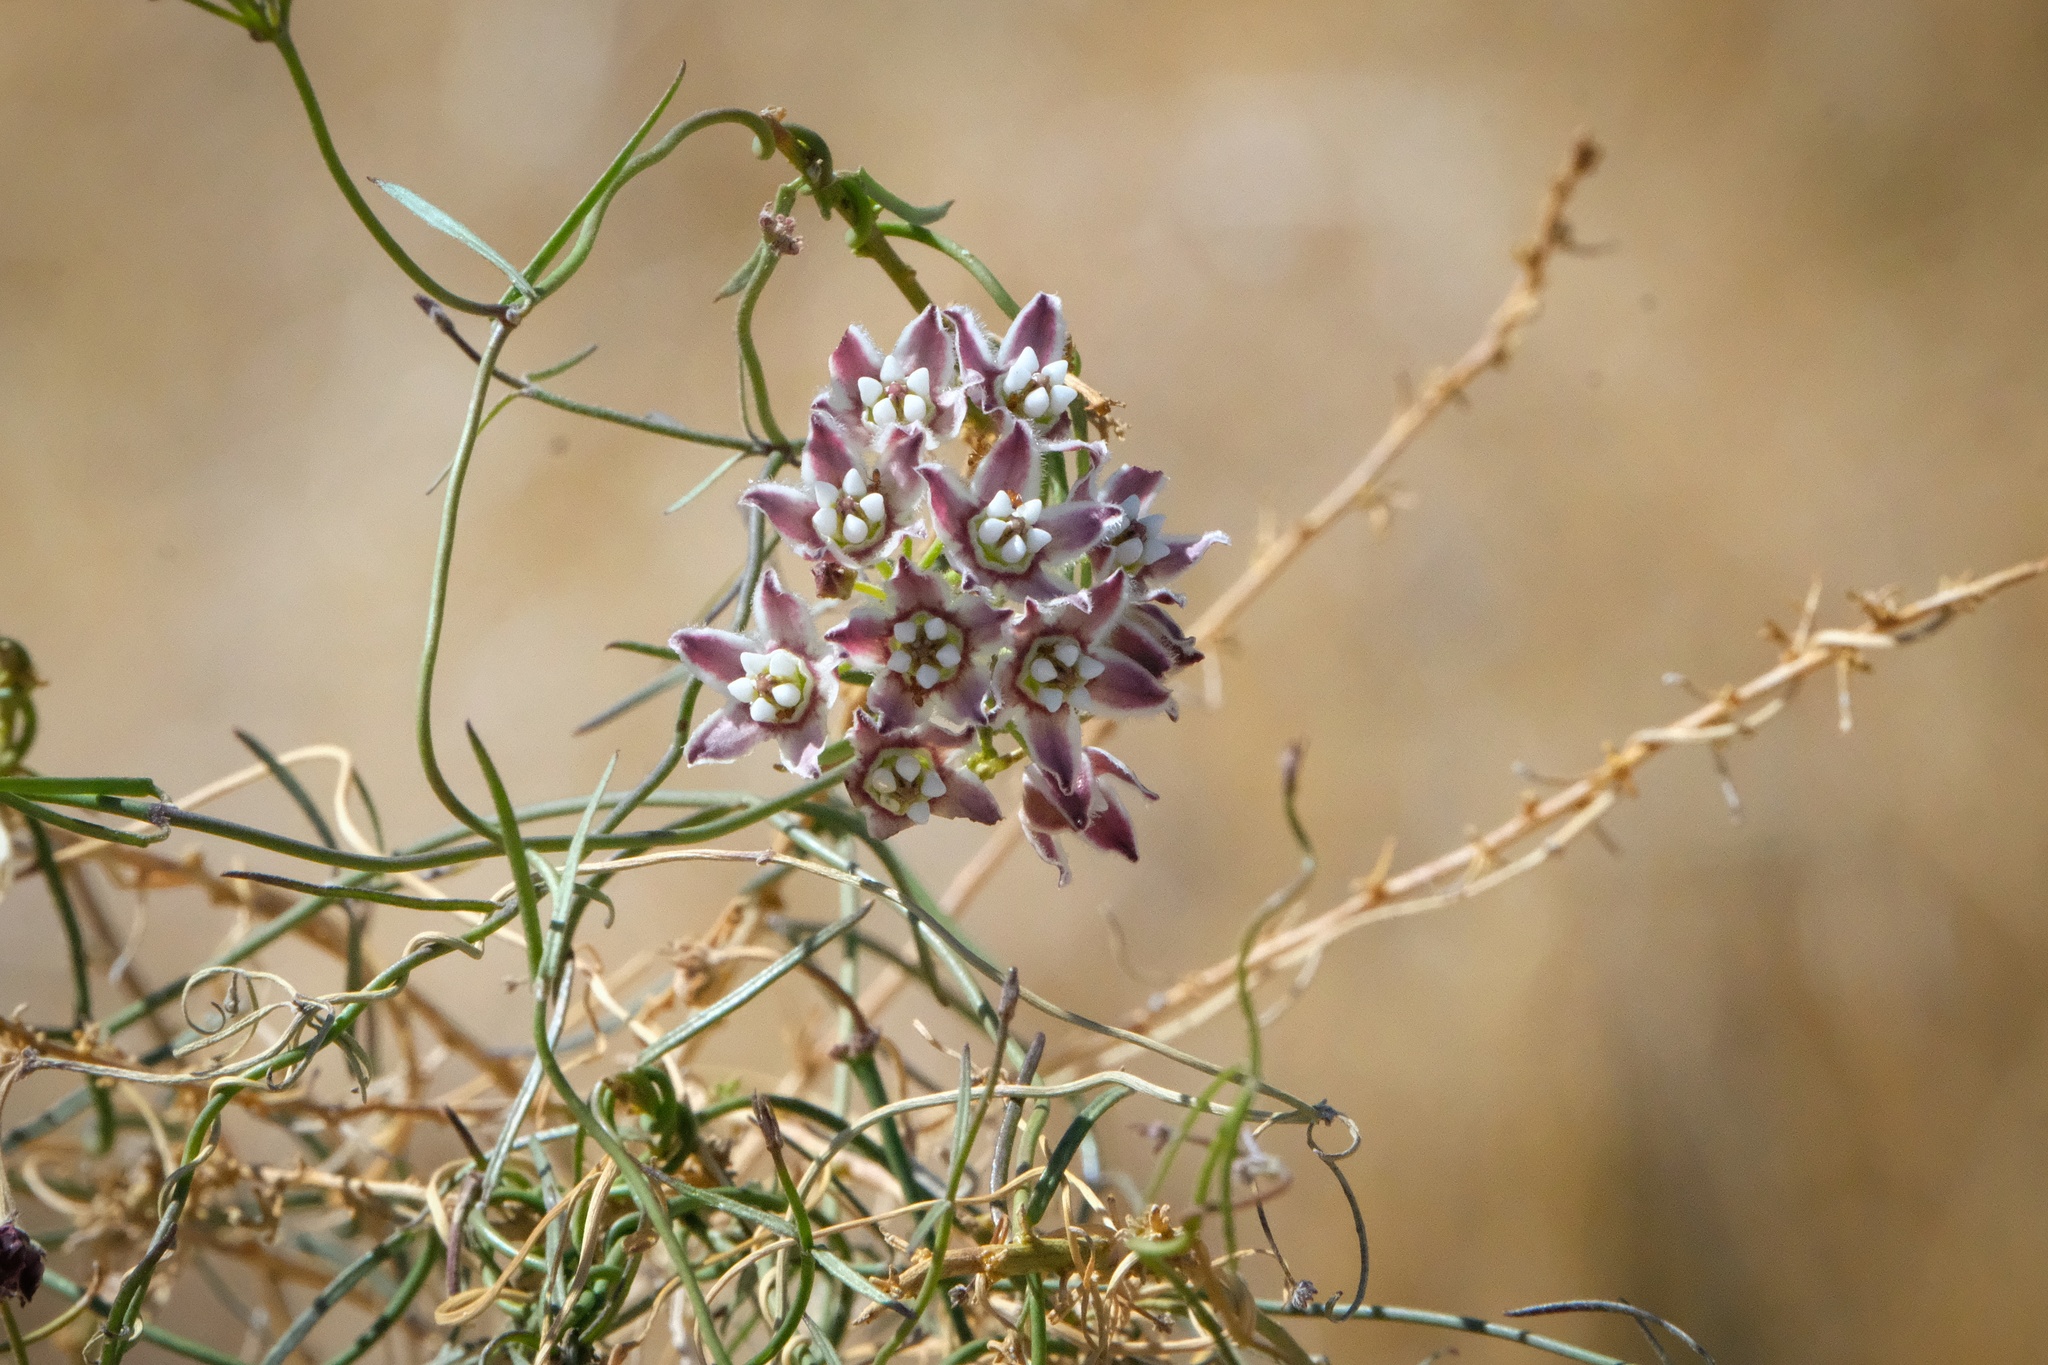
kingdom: Plantae
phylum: Tracheophyta
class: Magnoliopsida
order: Gentianales
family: Apocynaceae
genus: Funastrum
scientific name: Funastrum heterophyllum
